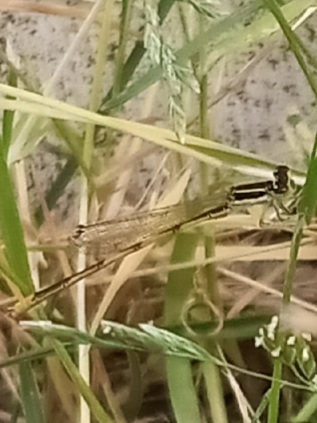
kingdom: Animalia
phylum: Arthropoda
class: Insecta
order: Odonata
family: Coenagrionidae
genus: Ischnura
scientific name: Ischnura hastata
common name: Citrine forktail
